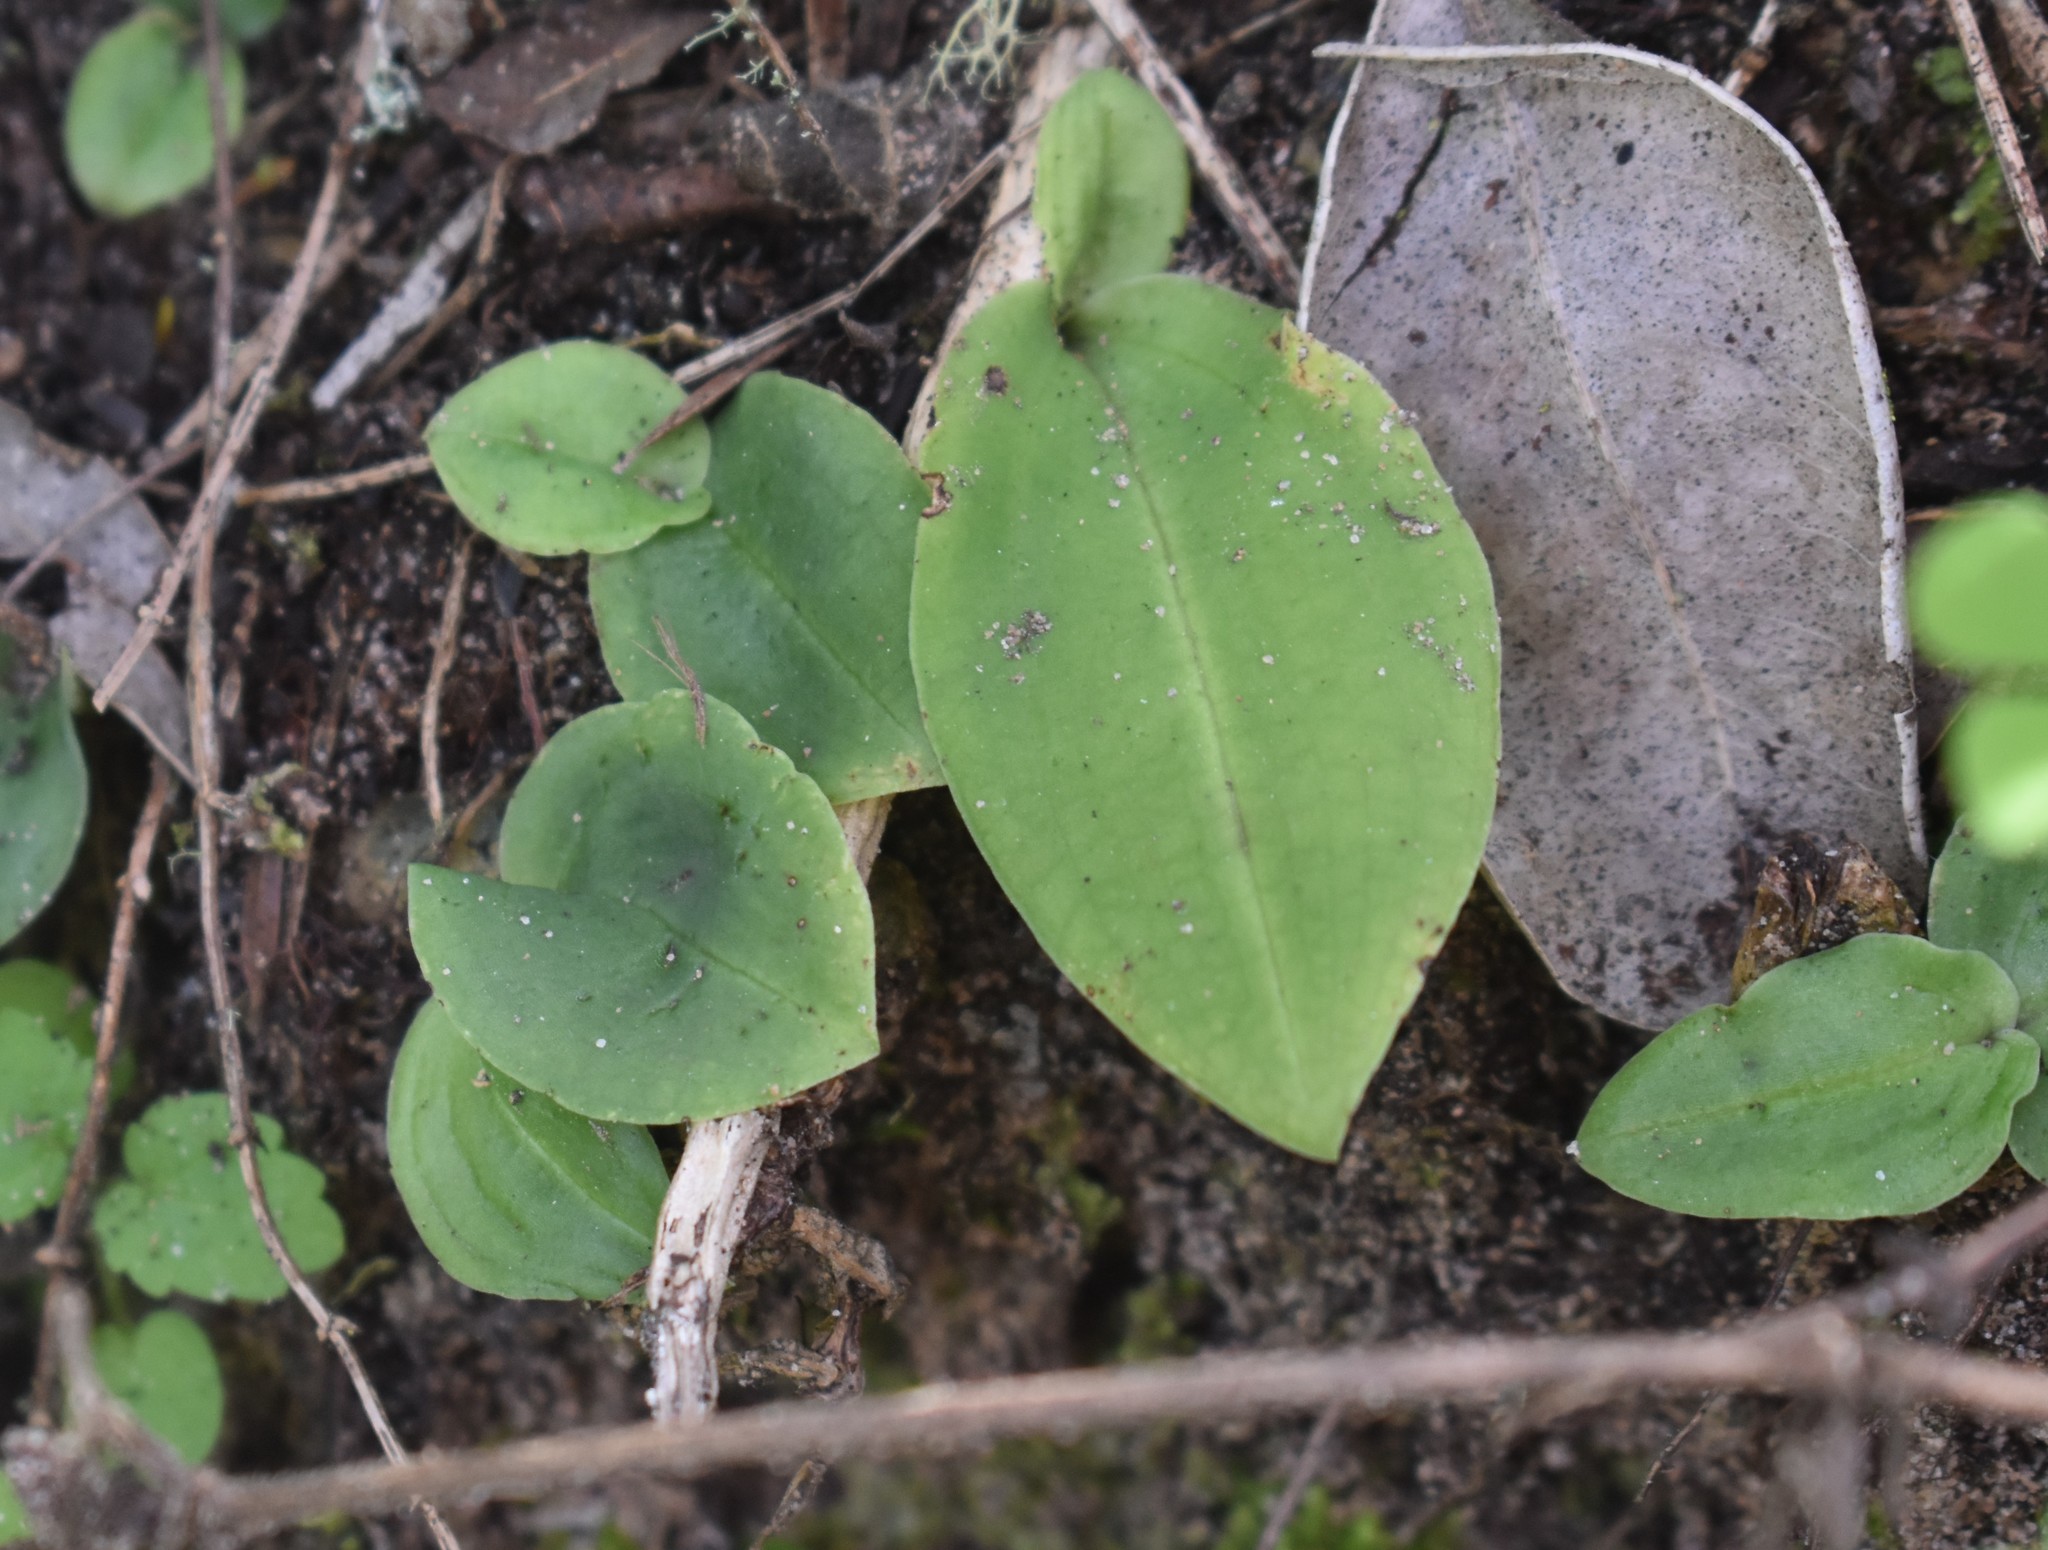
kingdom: Plantae
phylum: Tracheophyta
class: Liliopsida
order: Asparagales
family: Orchidaceae
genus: Habenaria
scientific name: Habenaria arenaria
